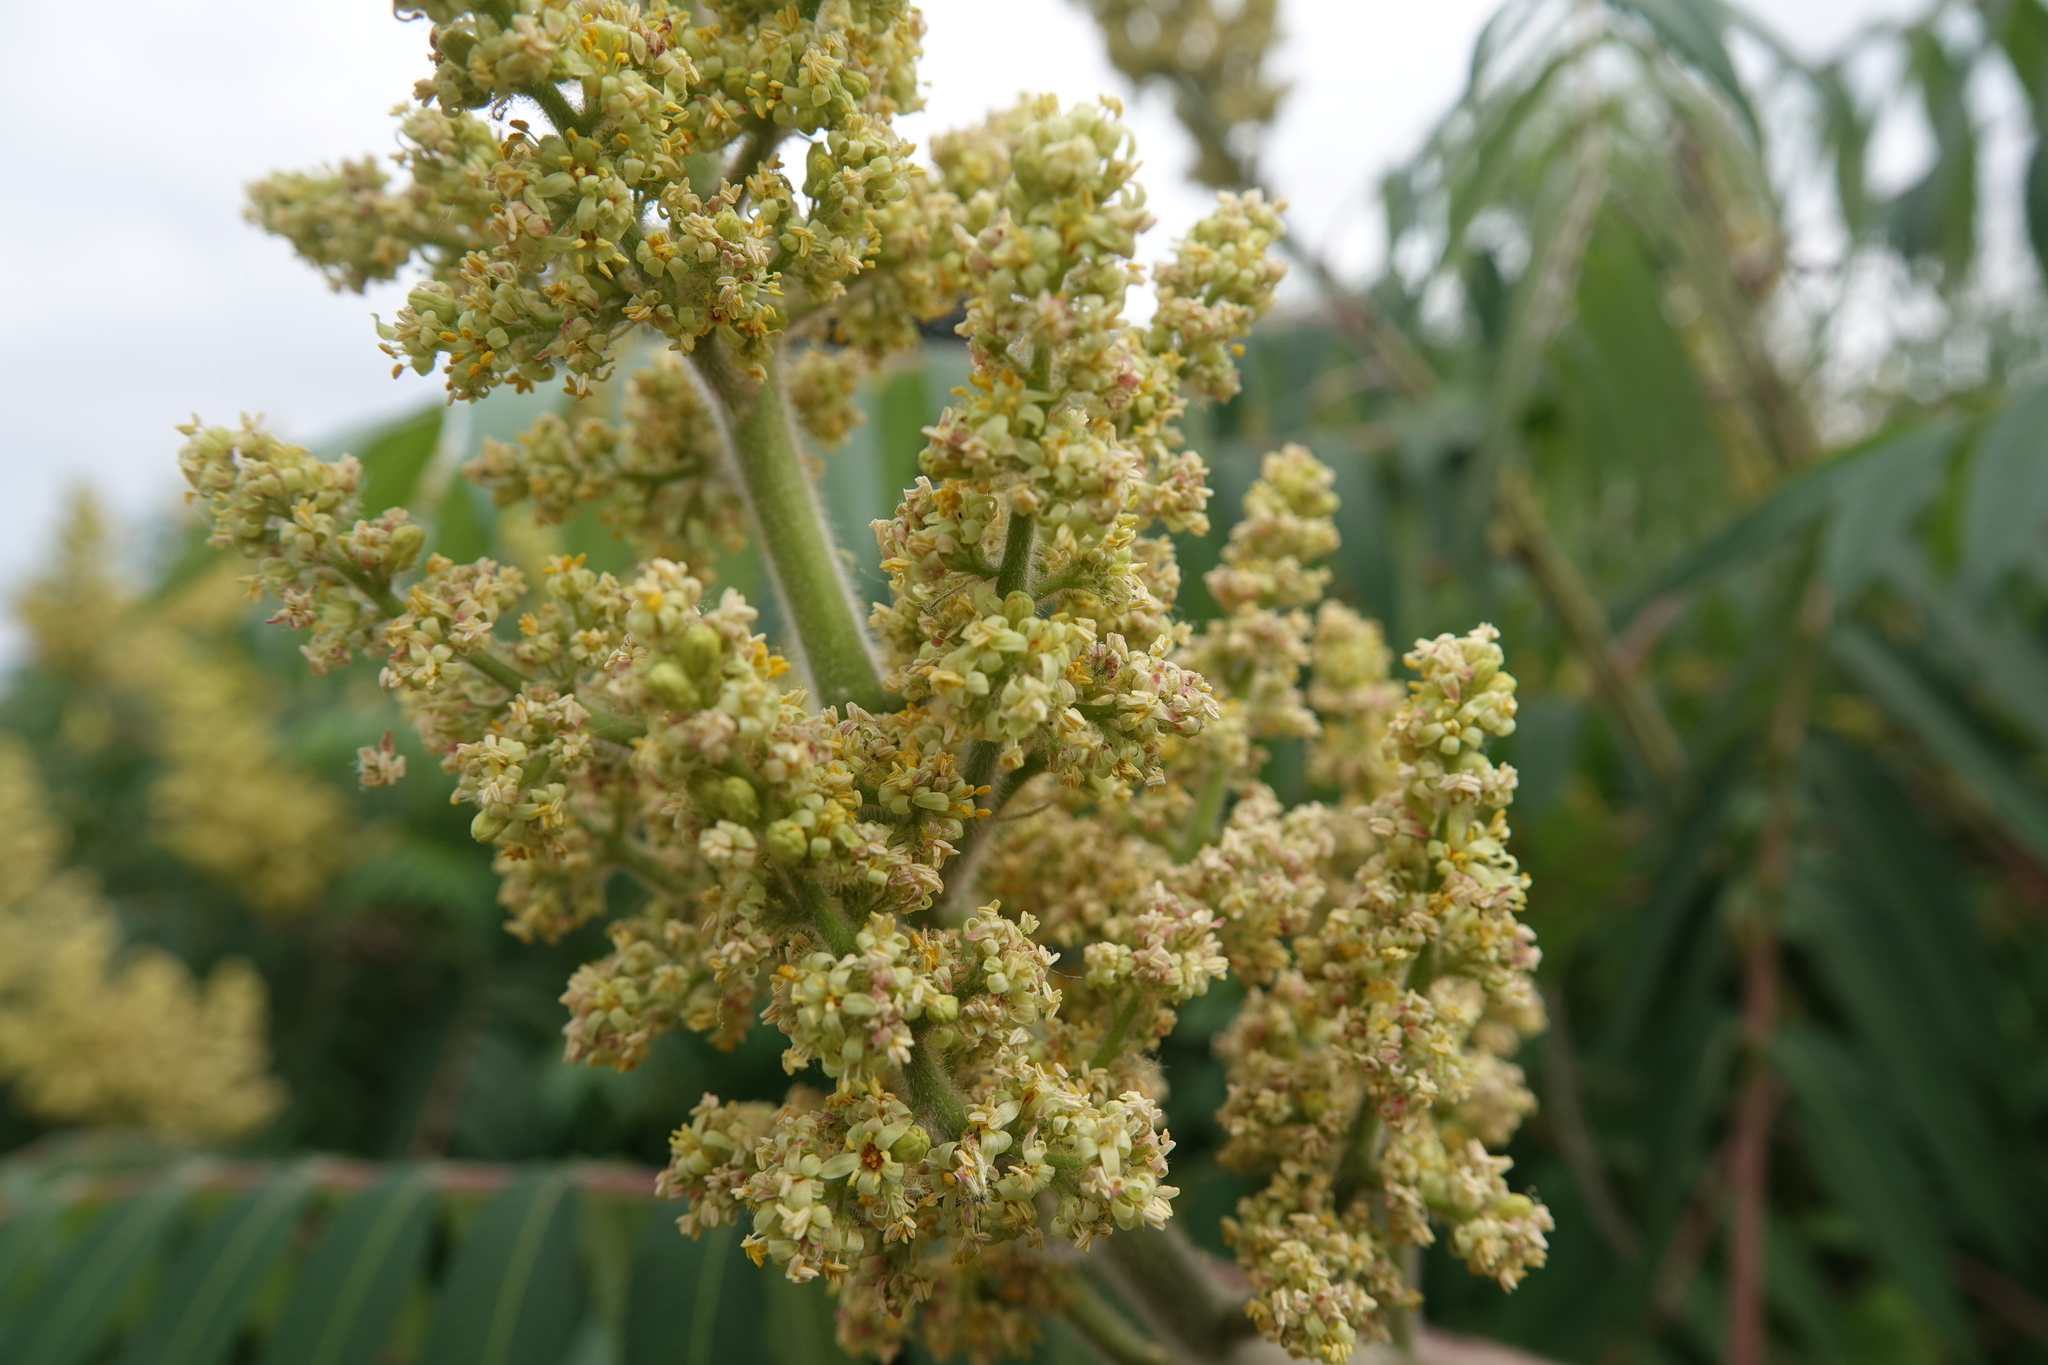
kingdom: Plantae
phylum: Tracheophyta
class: Magnoliopsida
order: Sapindales
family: Anacardiaceae
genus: Rhus
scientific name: Rhus typhina
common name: Staghorn sumac
